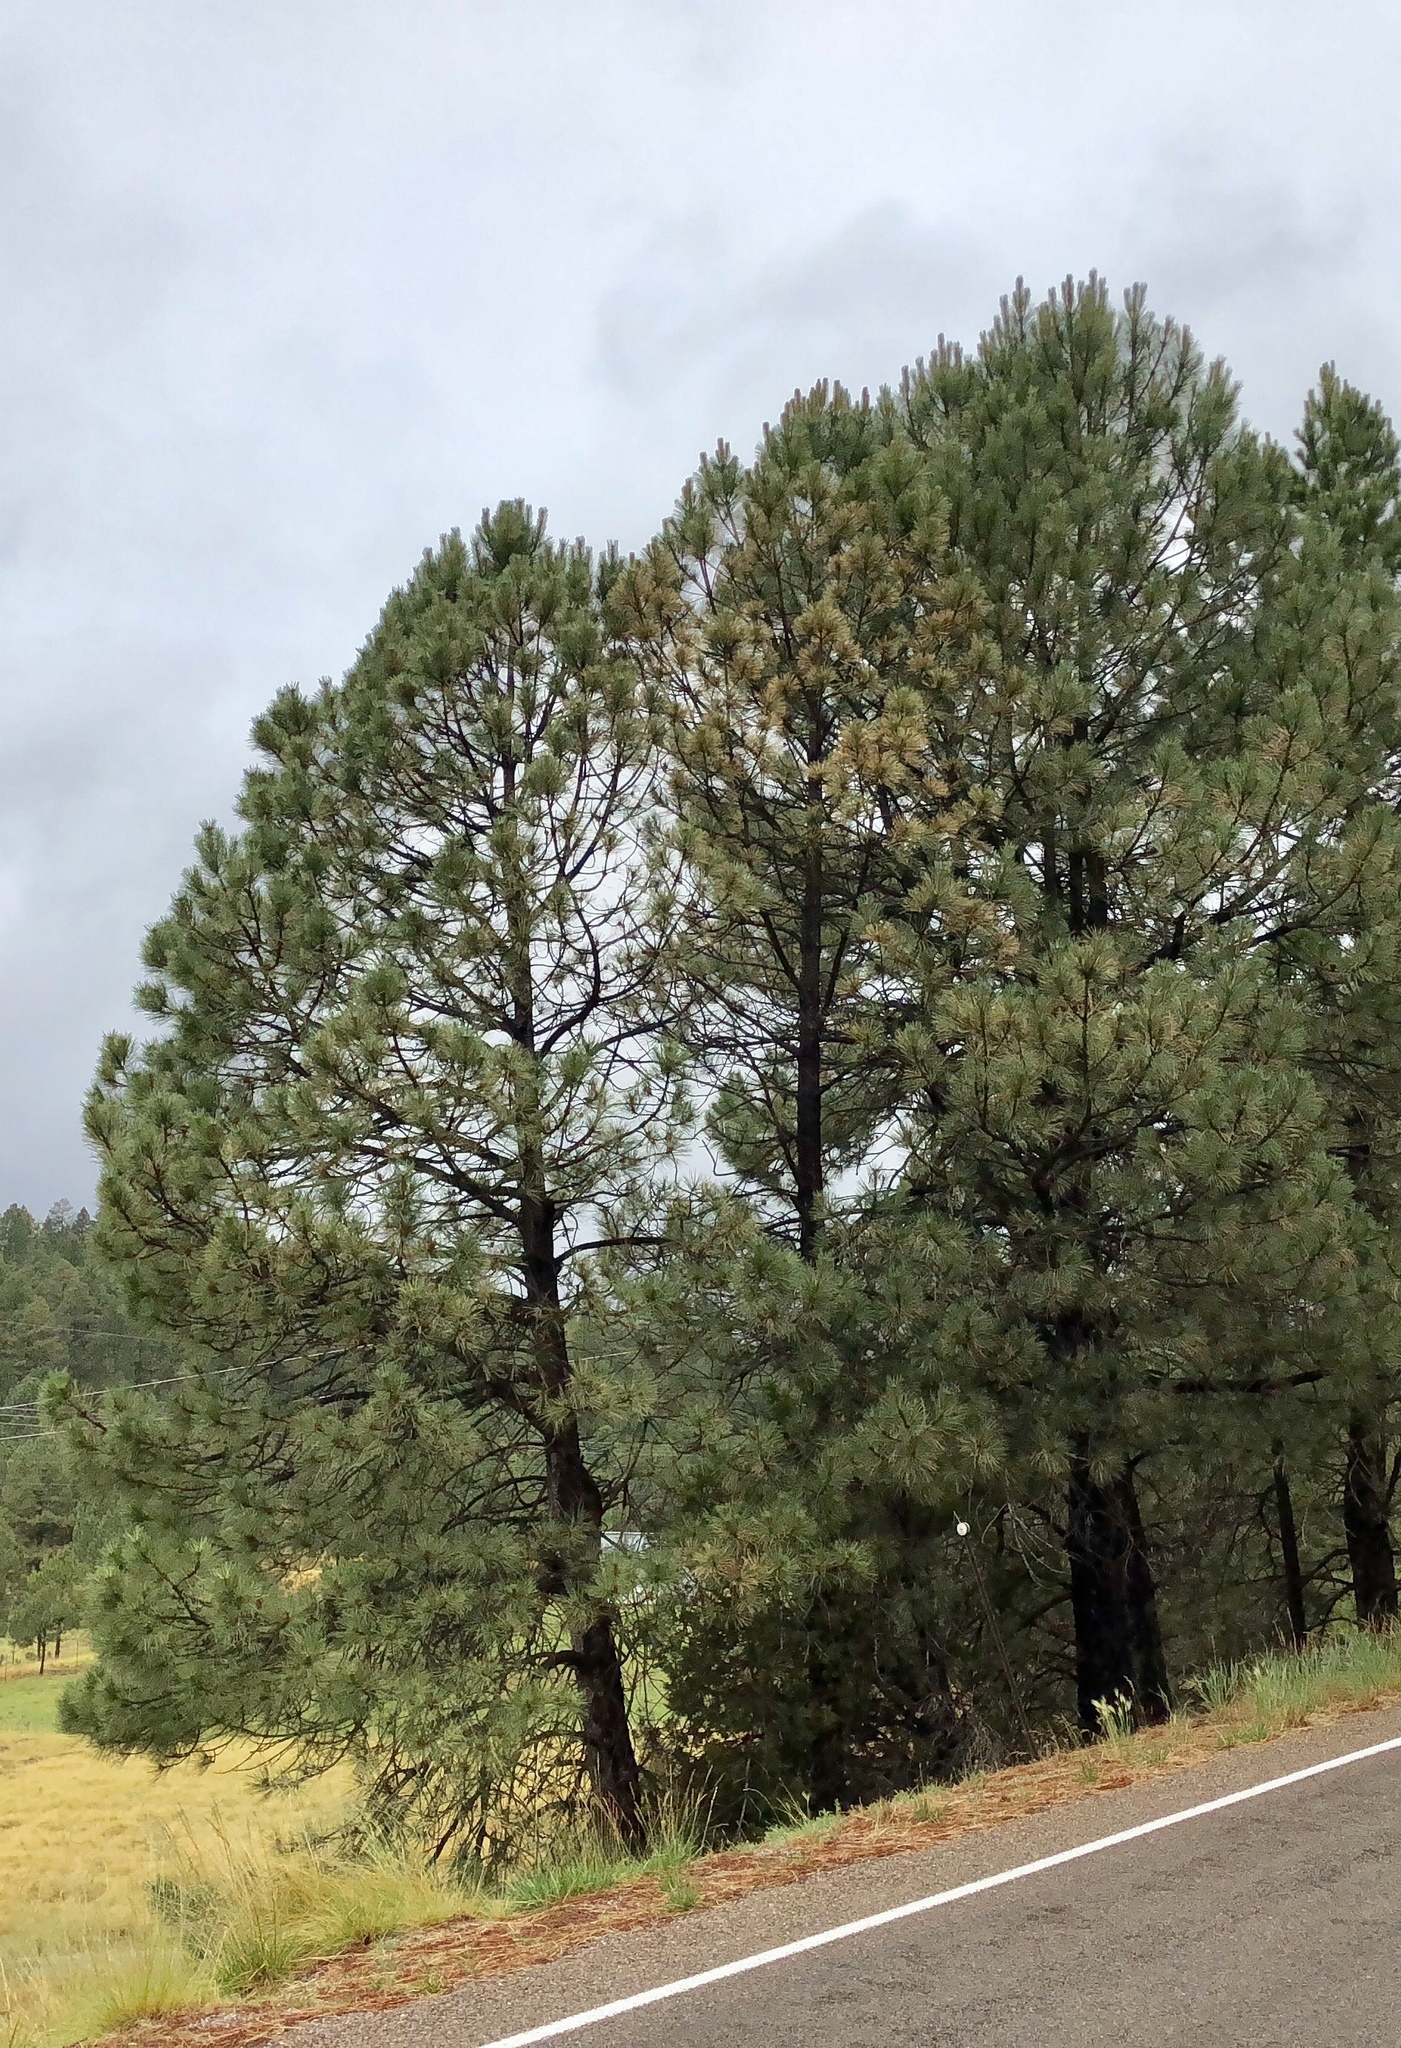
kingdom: Plantae
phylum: Tracheophyta
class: Pinopsida
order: Pinales
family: Pinaceae
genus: Pinus
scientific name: Pinus ponderosa
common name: Western yellow-pine
